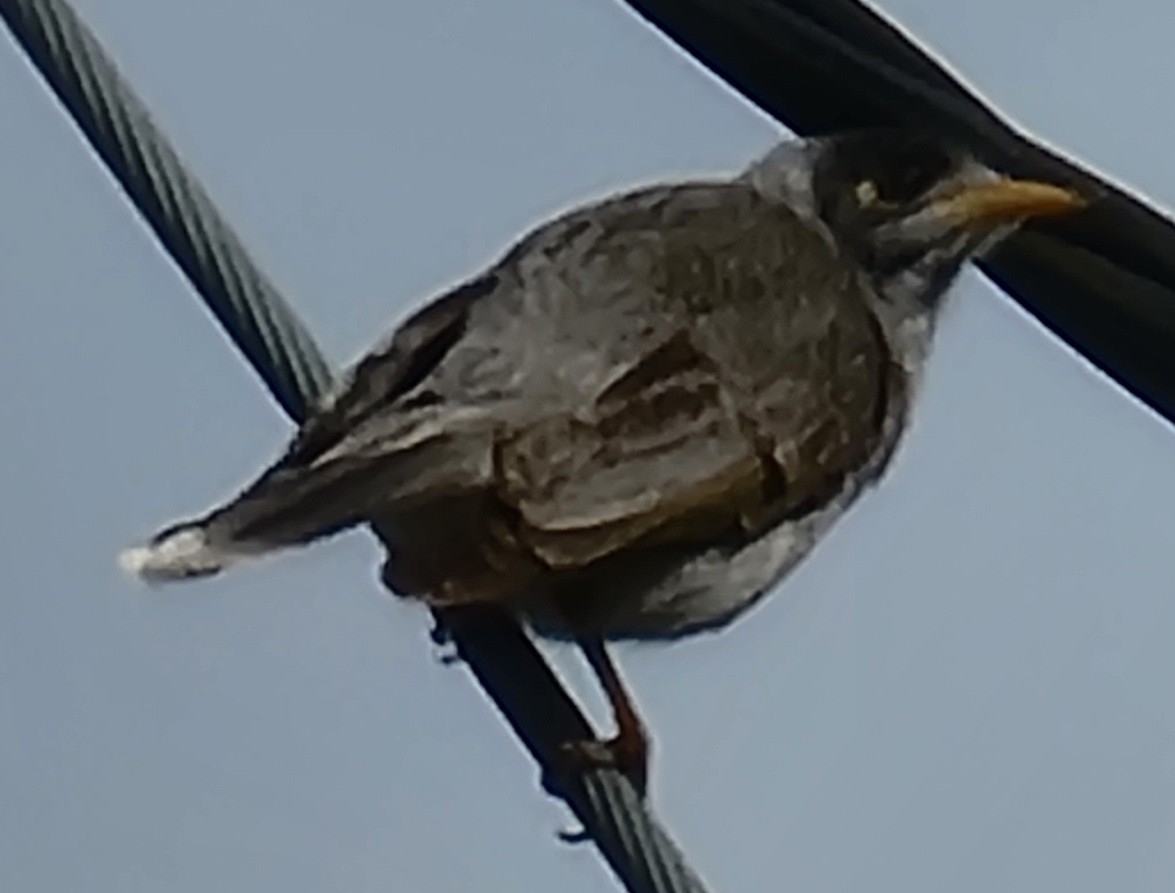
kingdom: Animalia
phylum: Chordata
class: Aves
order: Passeriformes
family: Meliphagidae
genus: Manorina
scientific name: Manorina melanocephala
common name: Noisy miner
